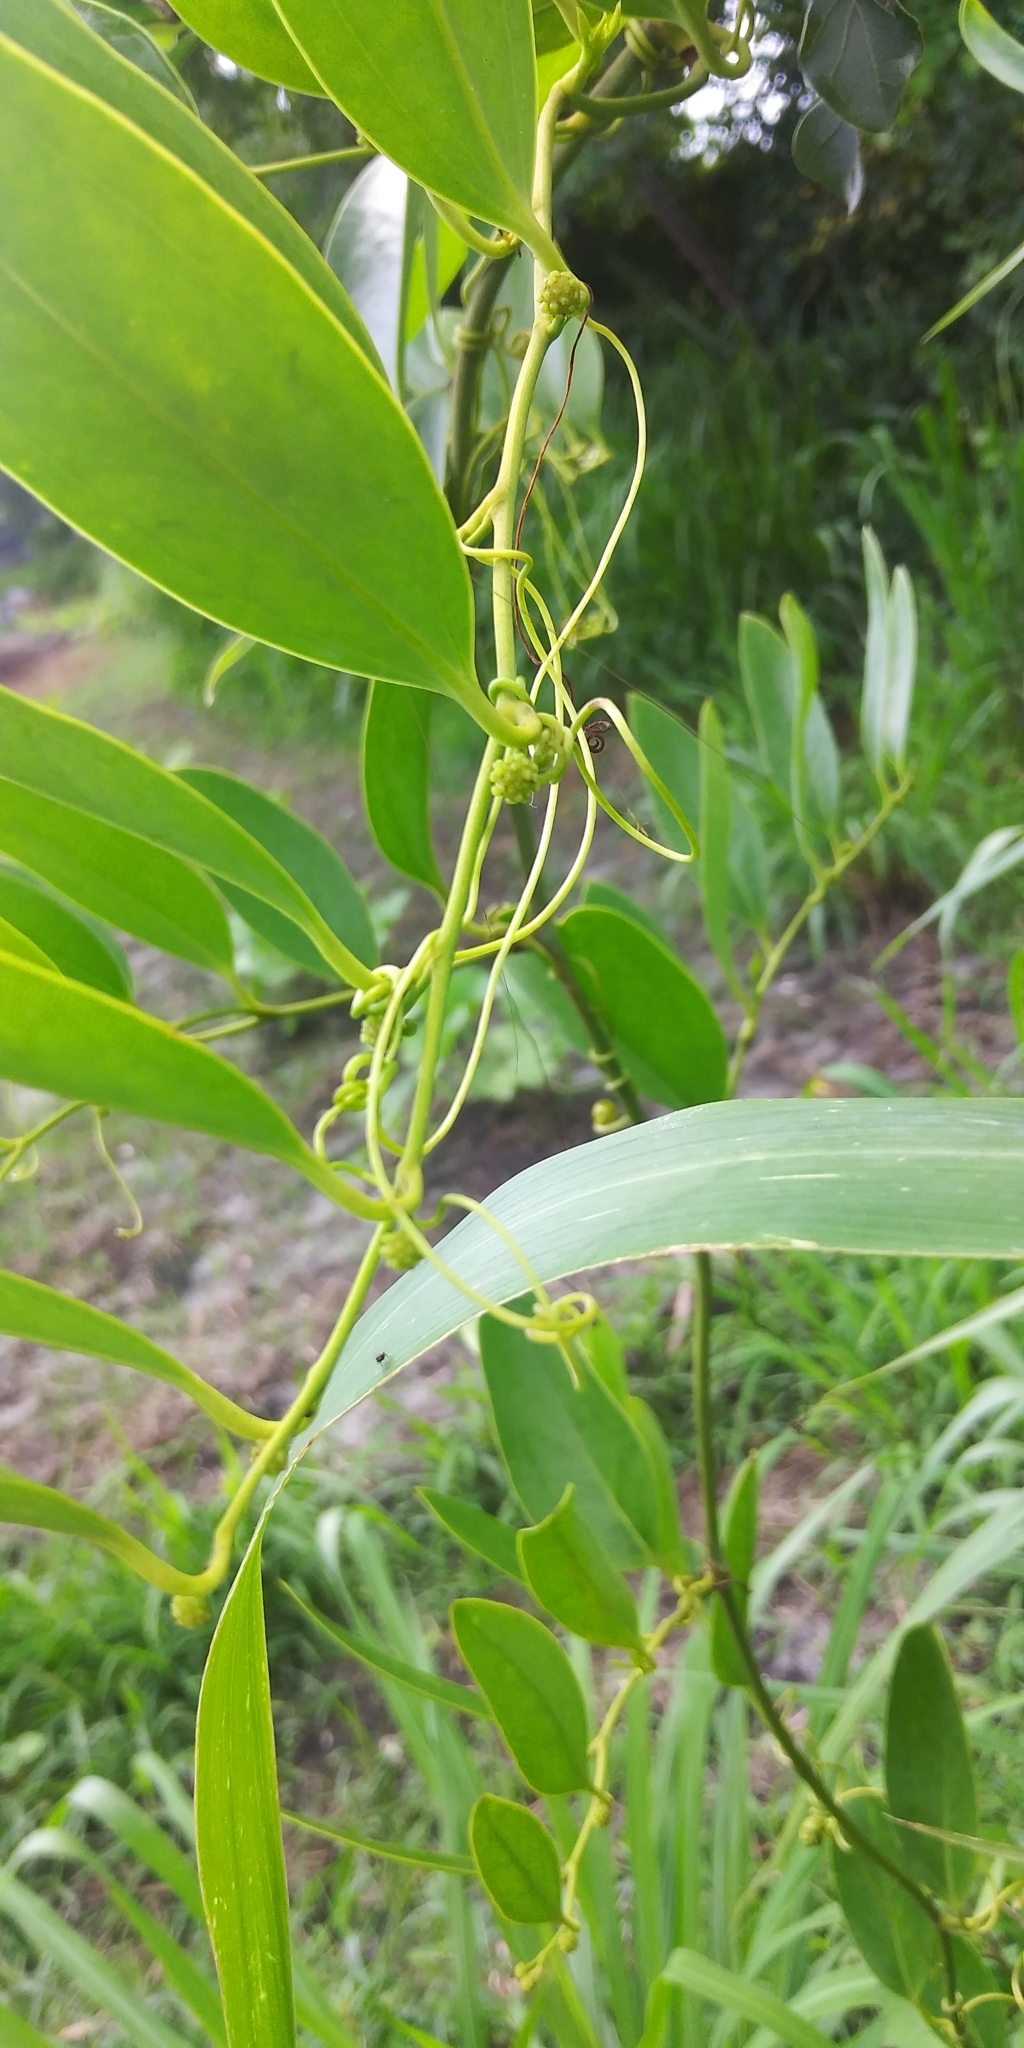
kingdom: Plantae
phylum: Tracheophyta
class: Liliopsida
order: Liliales
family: Smilacaceae
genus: Smilax
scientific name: Smilax laurifolia
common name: Bamboovine
